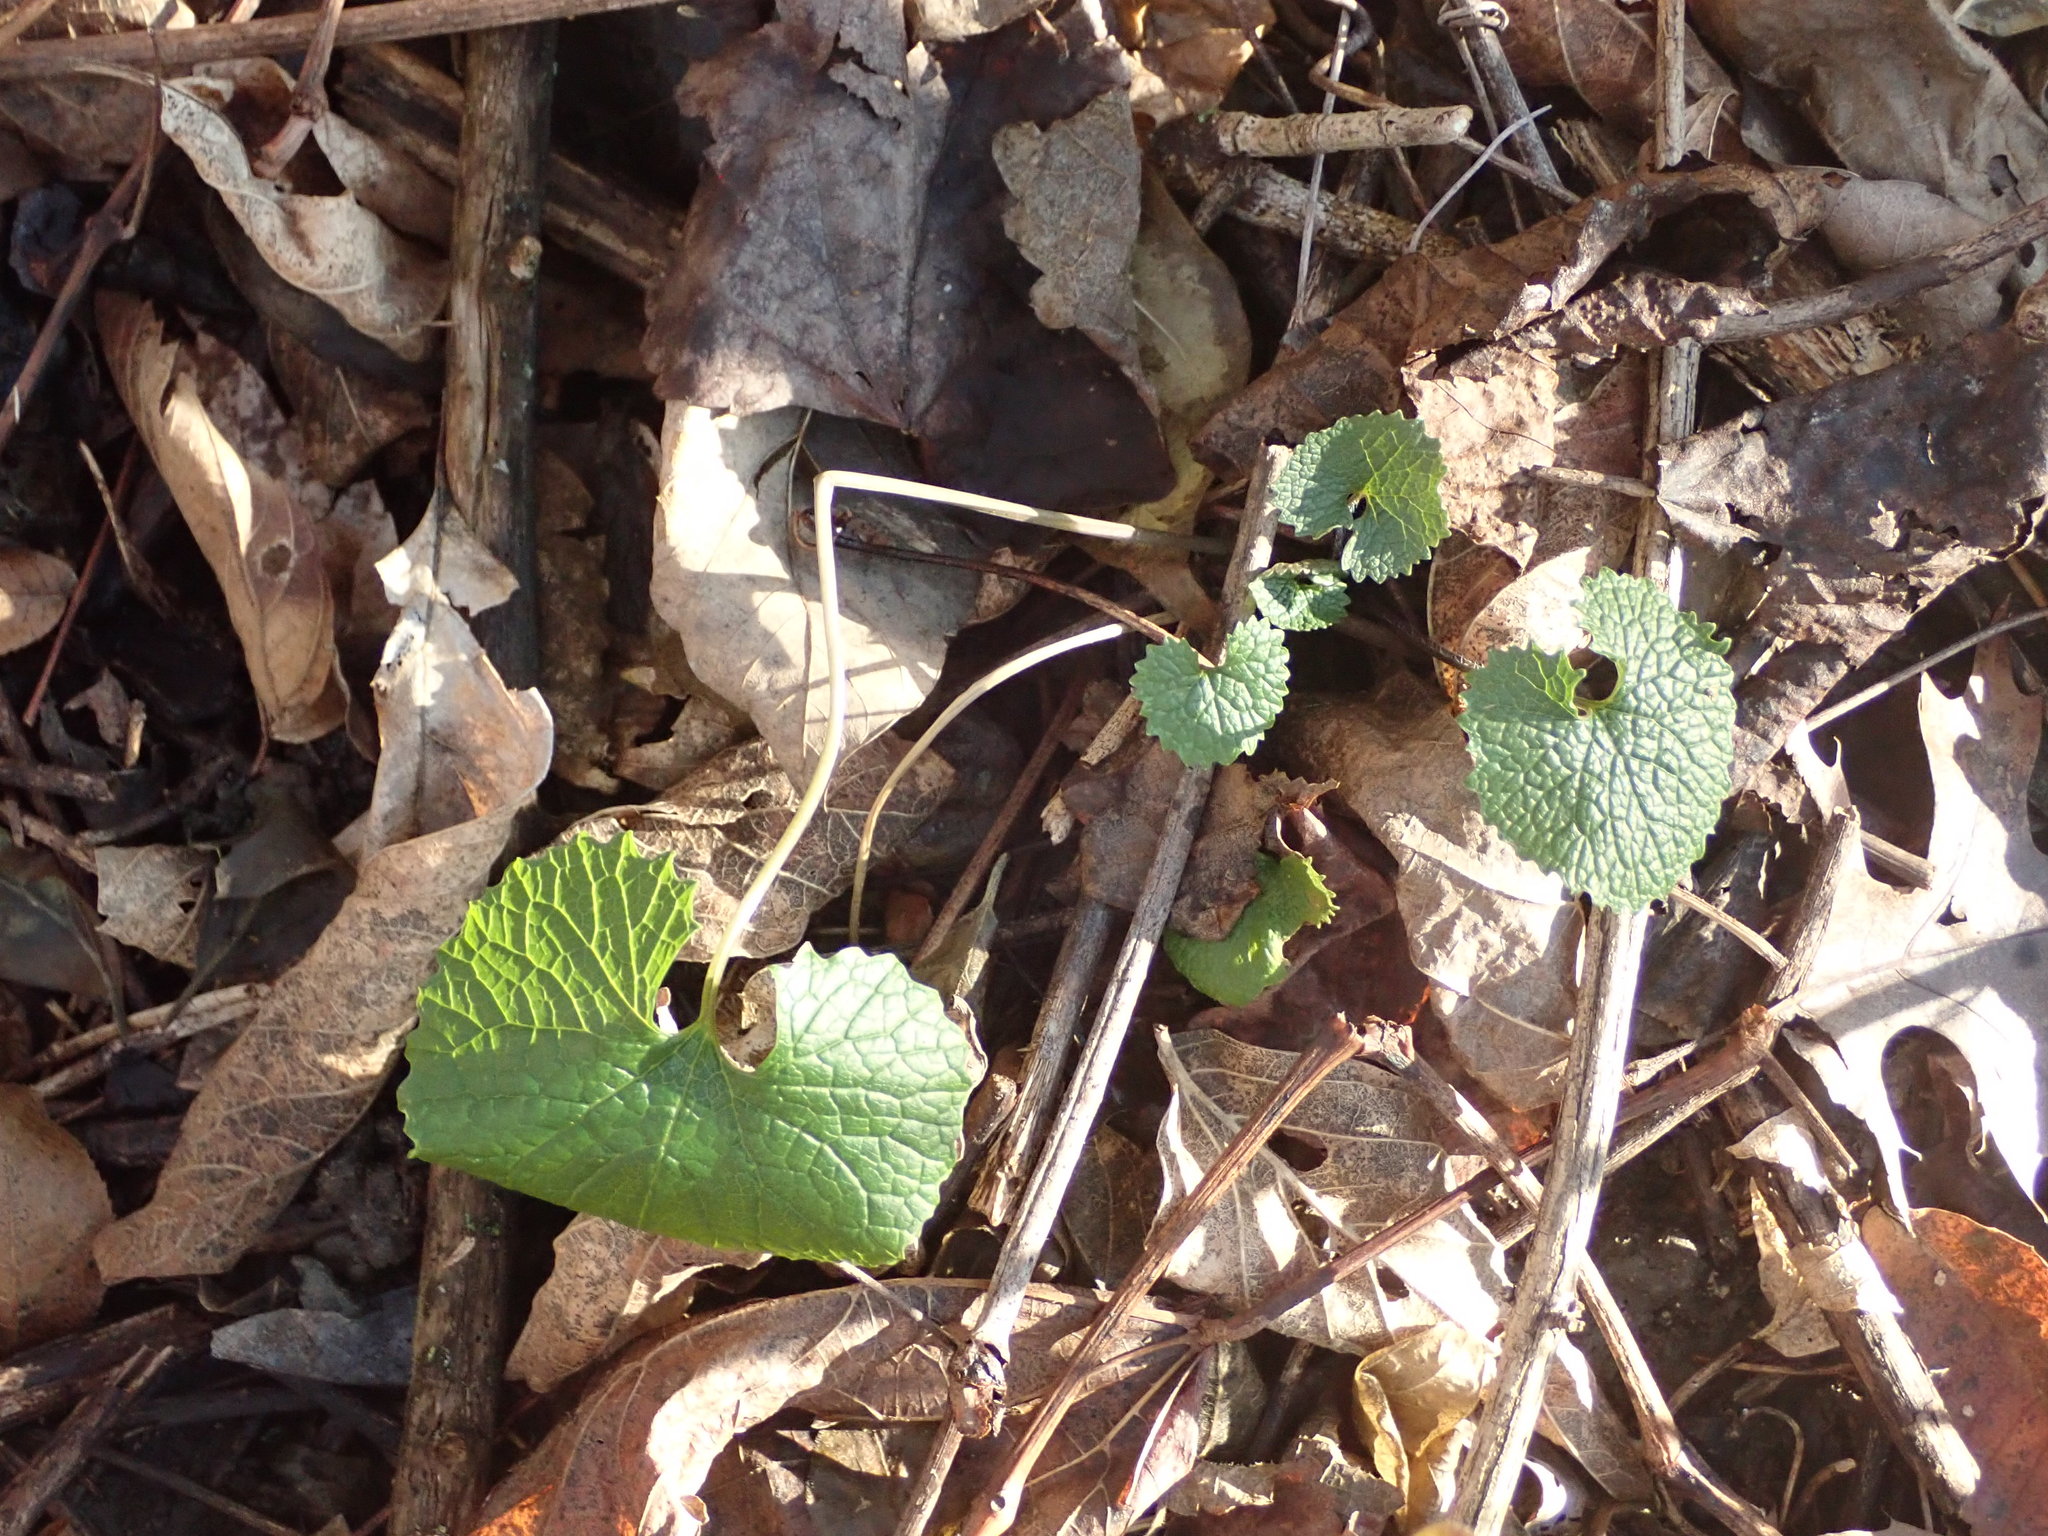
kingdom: Plantae
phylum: Tracheophyta
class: Magnoliopsida
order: Brassicales
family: Brassicaceae
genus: Alliaria
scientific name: Alliaria petiolata
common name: Garlic mustard
